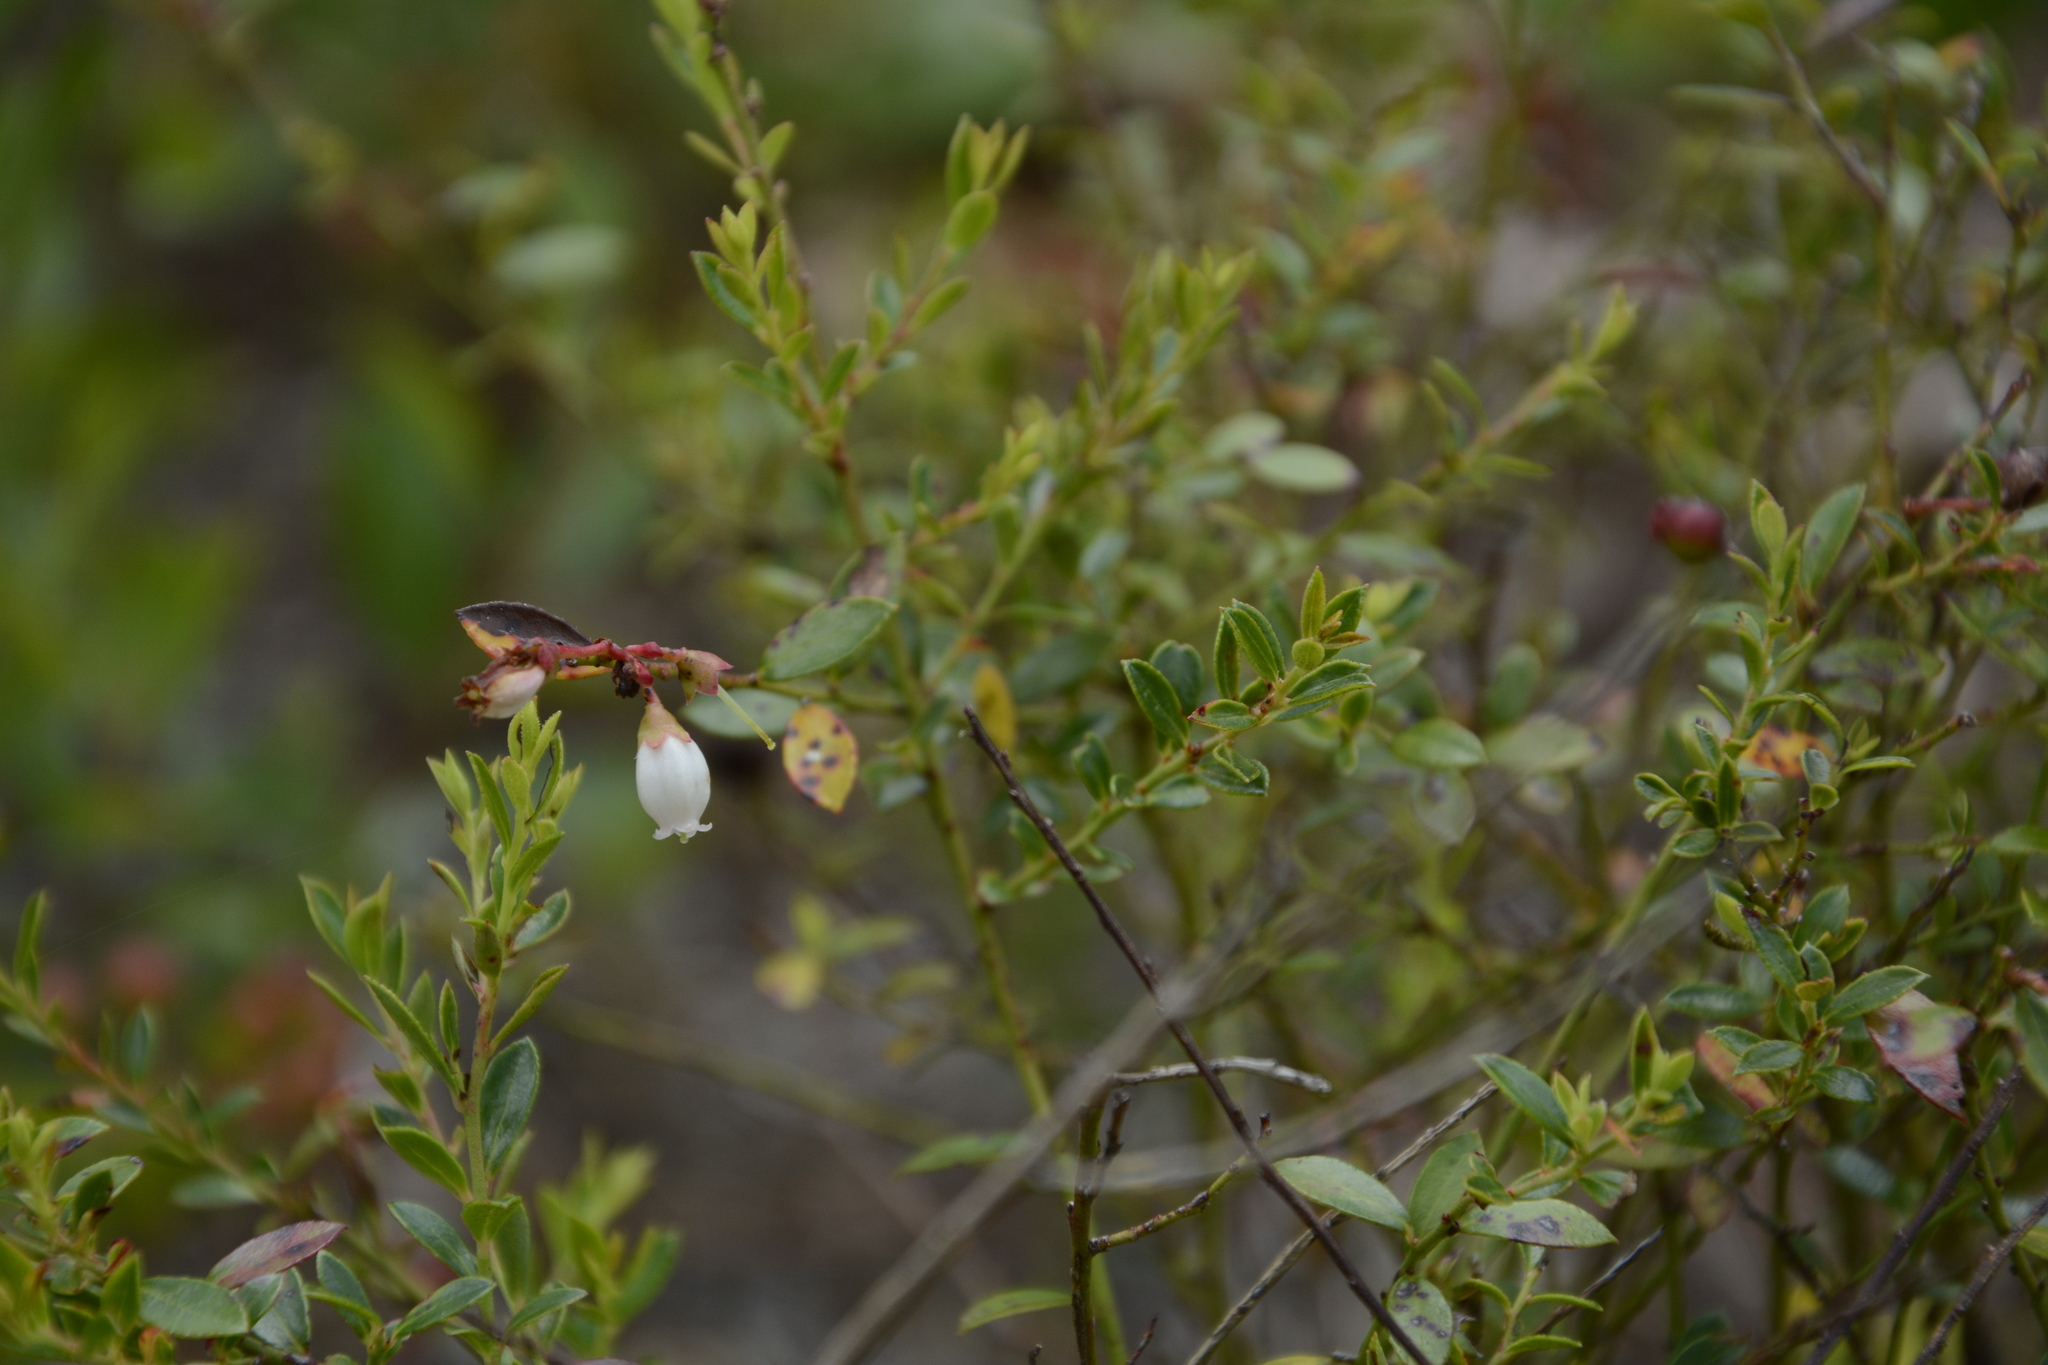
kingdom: Plantae
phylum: Tracheophyta
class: Magnoliopsida
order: Ericales
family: Ericaceae
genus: Vaccinium
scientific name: Vaccinium myrsinites
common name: Evergreen blueberry
